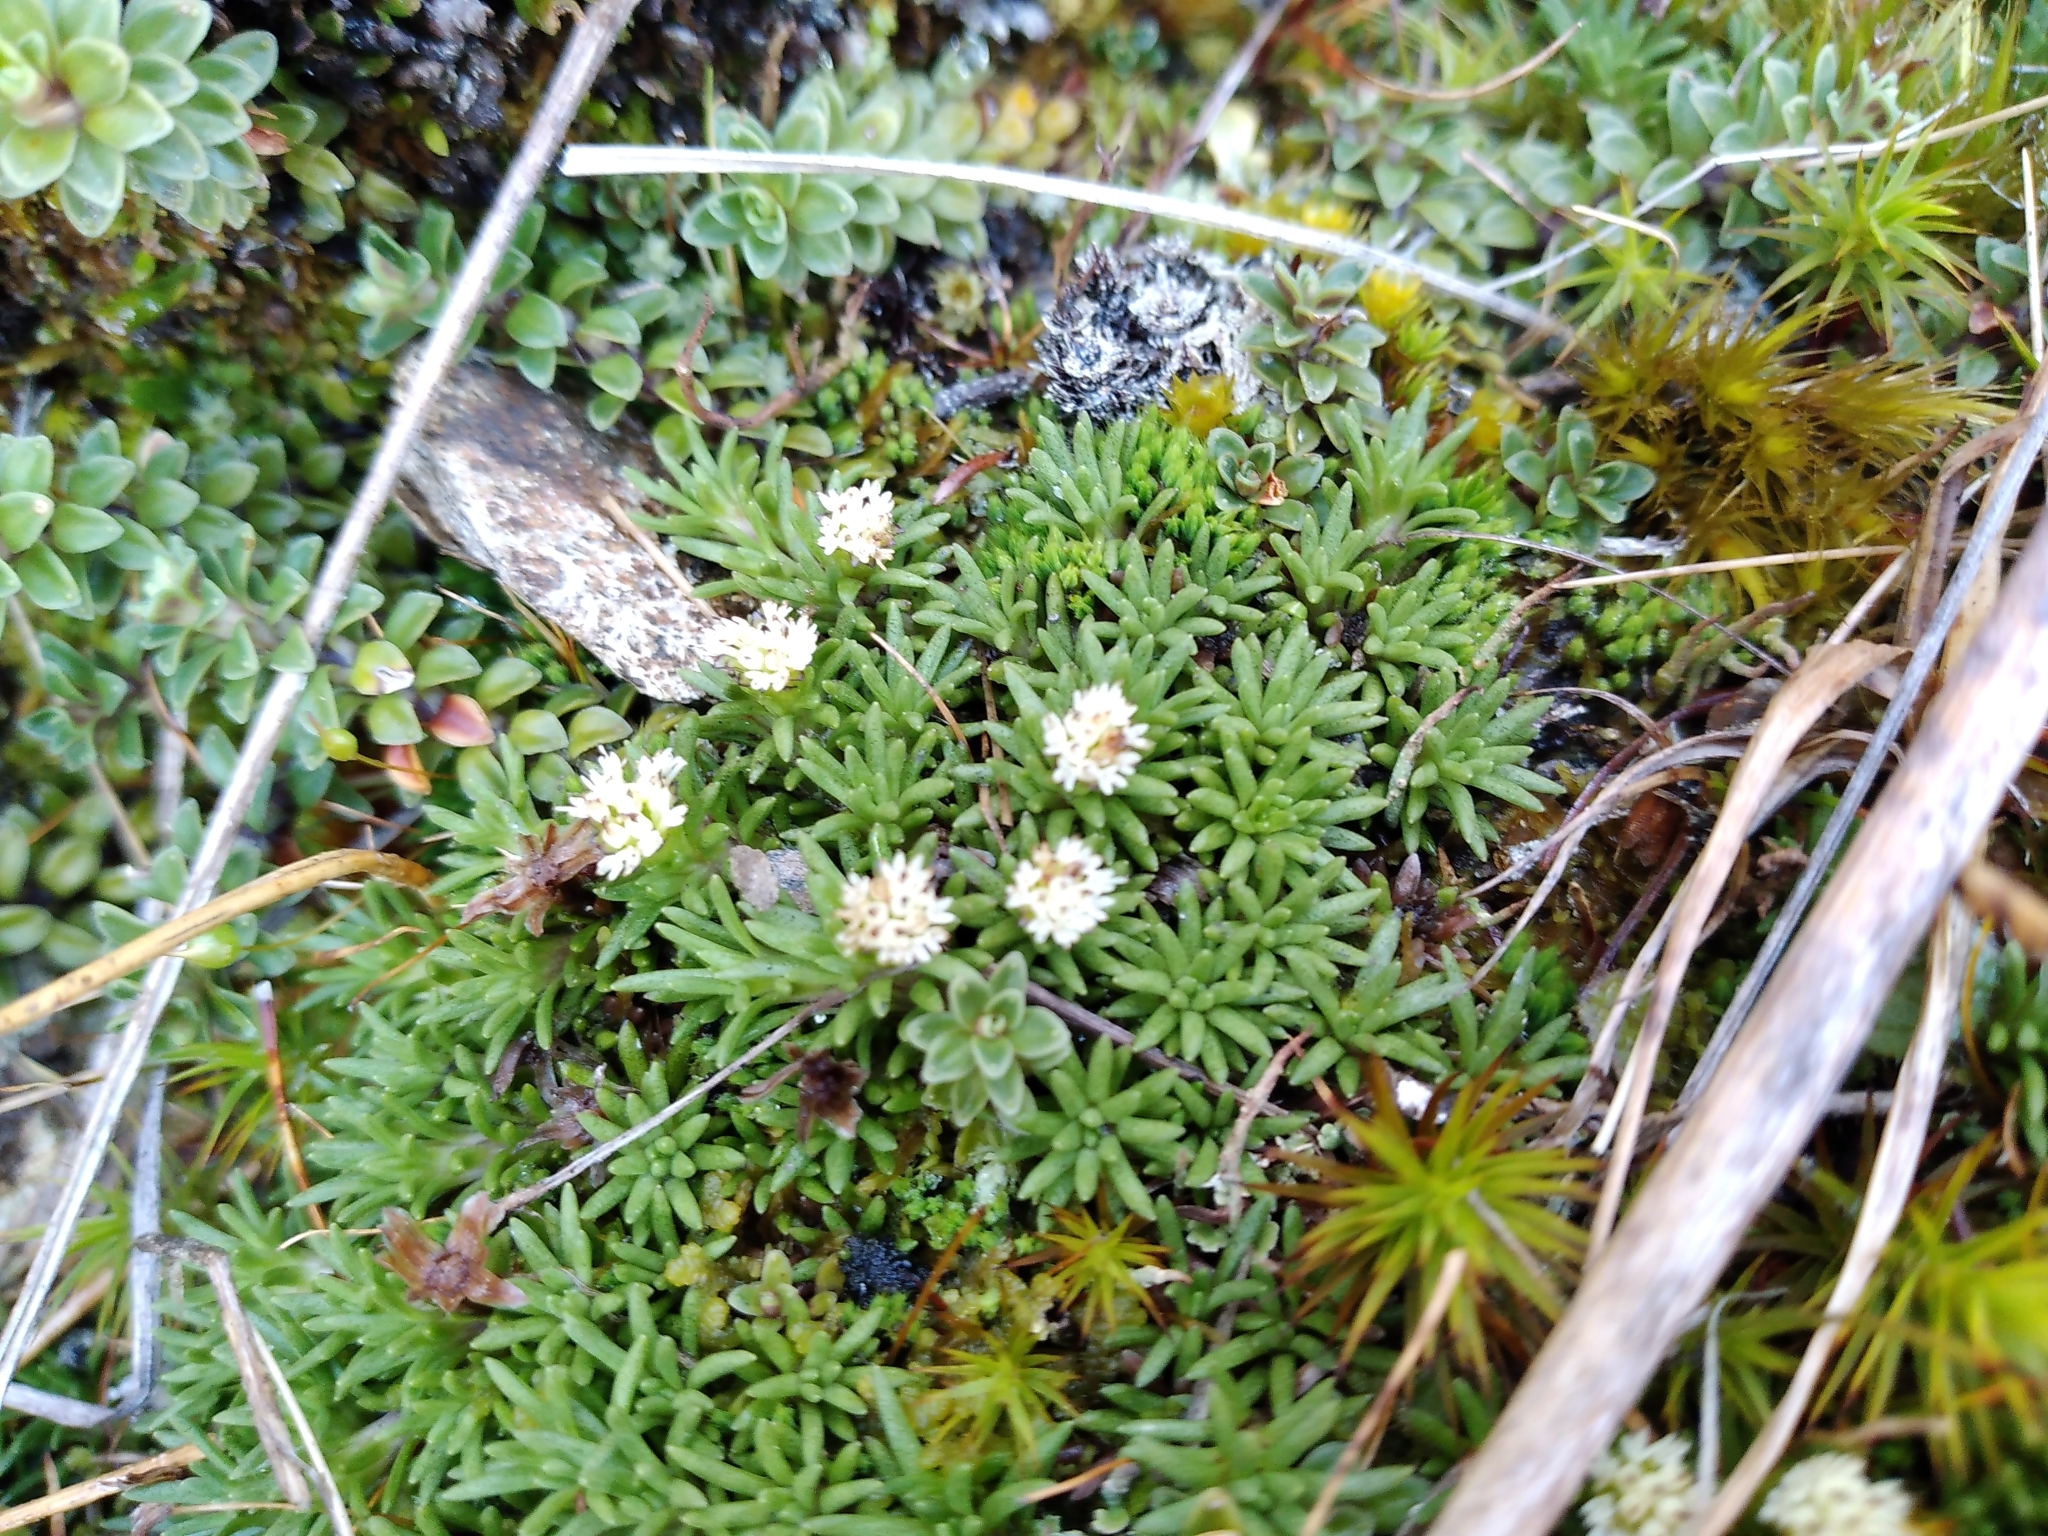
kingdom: Plantae
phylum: Tracheophyta
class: Magnoliopsida
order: Asterales
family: Asteraceae
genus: Abrotanella
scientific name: Abrotanella inconspicua
